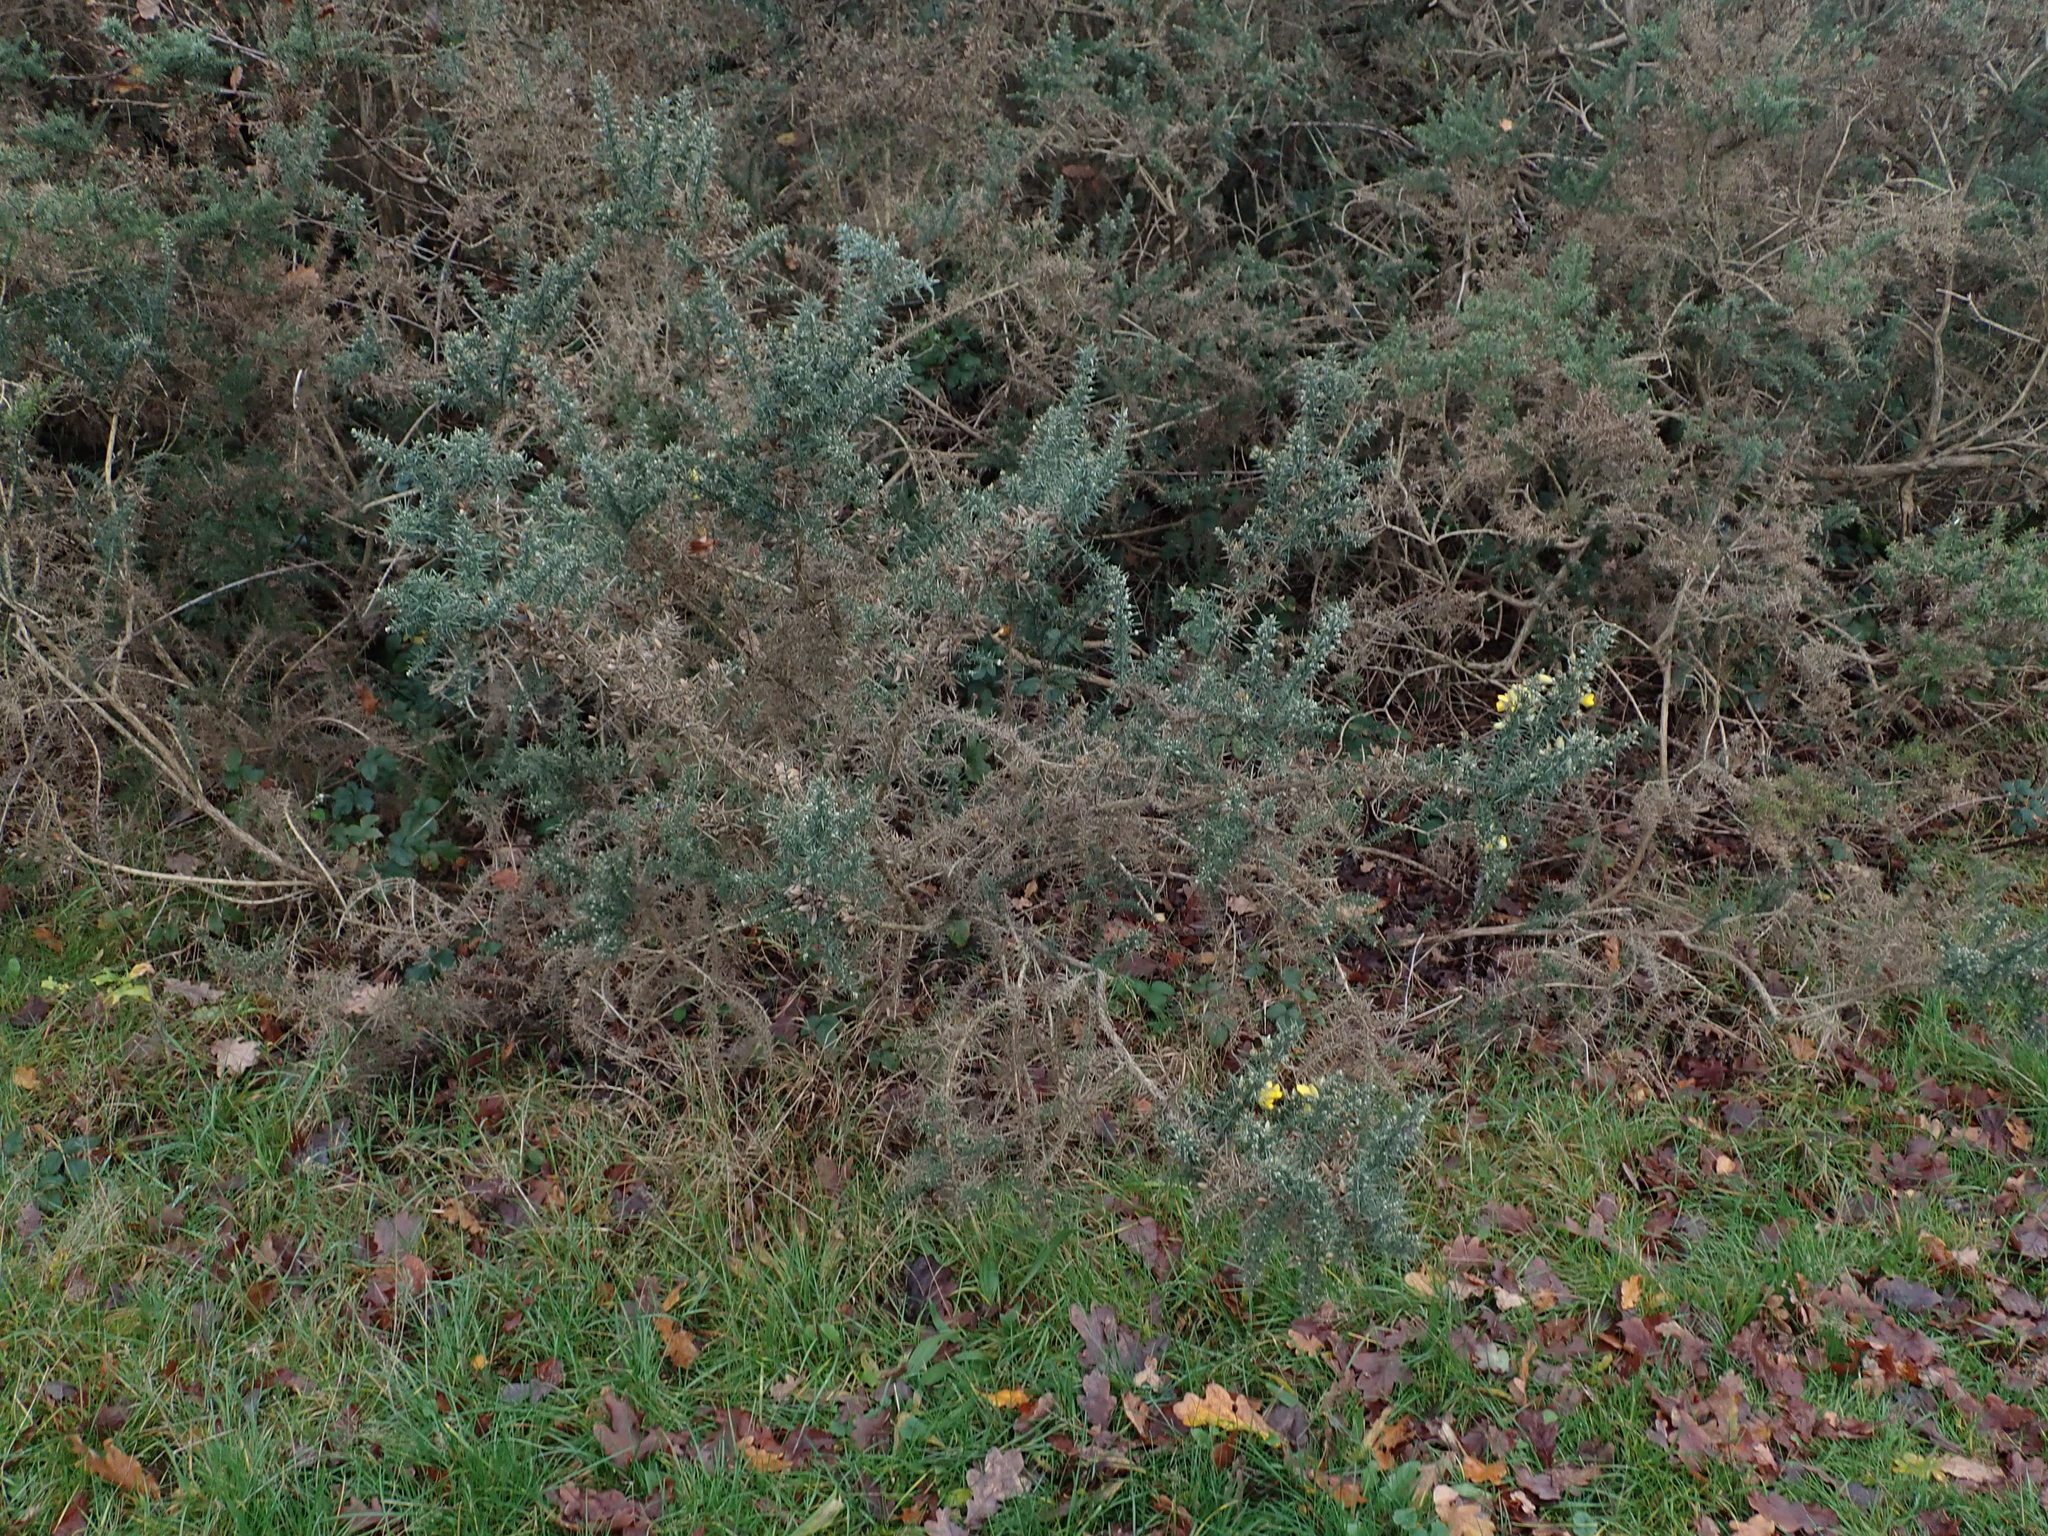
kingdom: Plantae
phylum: Tracheophyta
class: Magnoliopsida
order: Fabales
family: Fabaceae
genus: Ulex
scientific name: Ulex europaeus
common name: Common gorse
